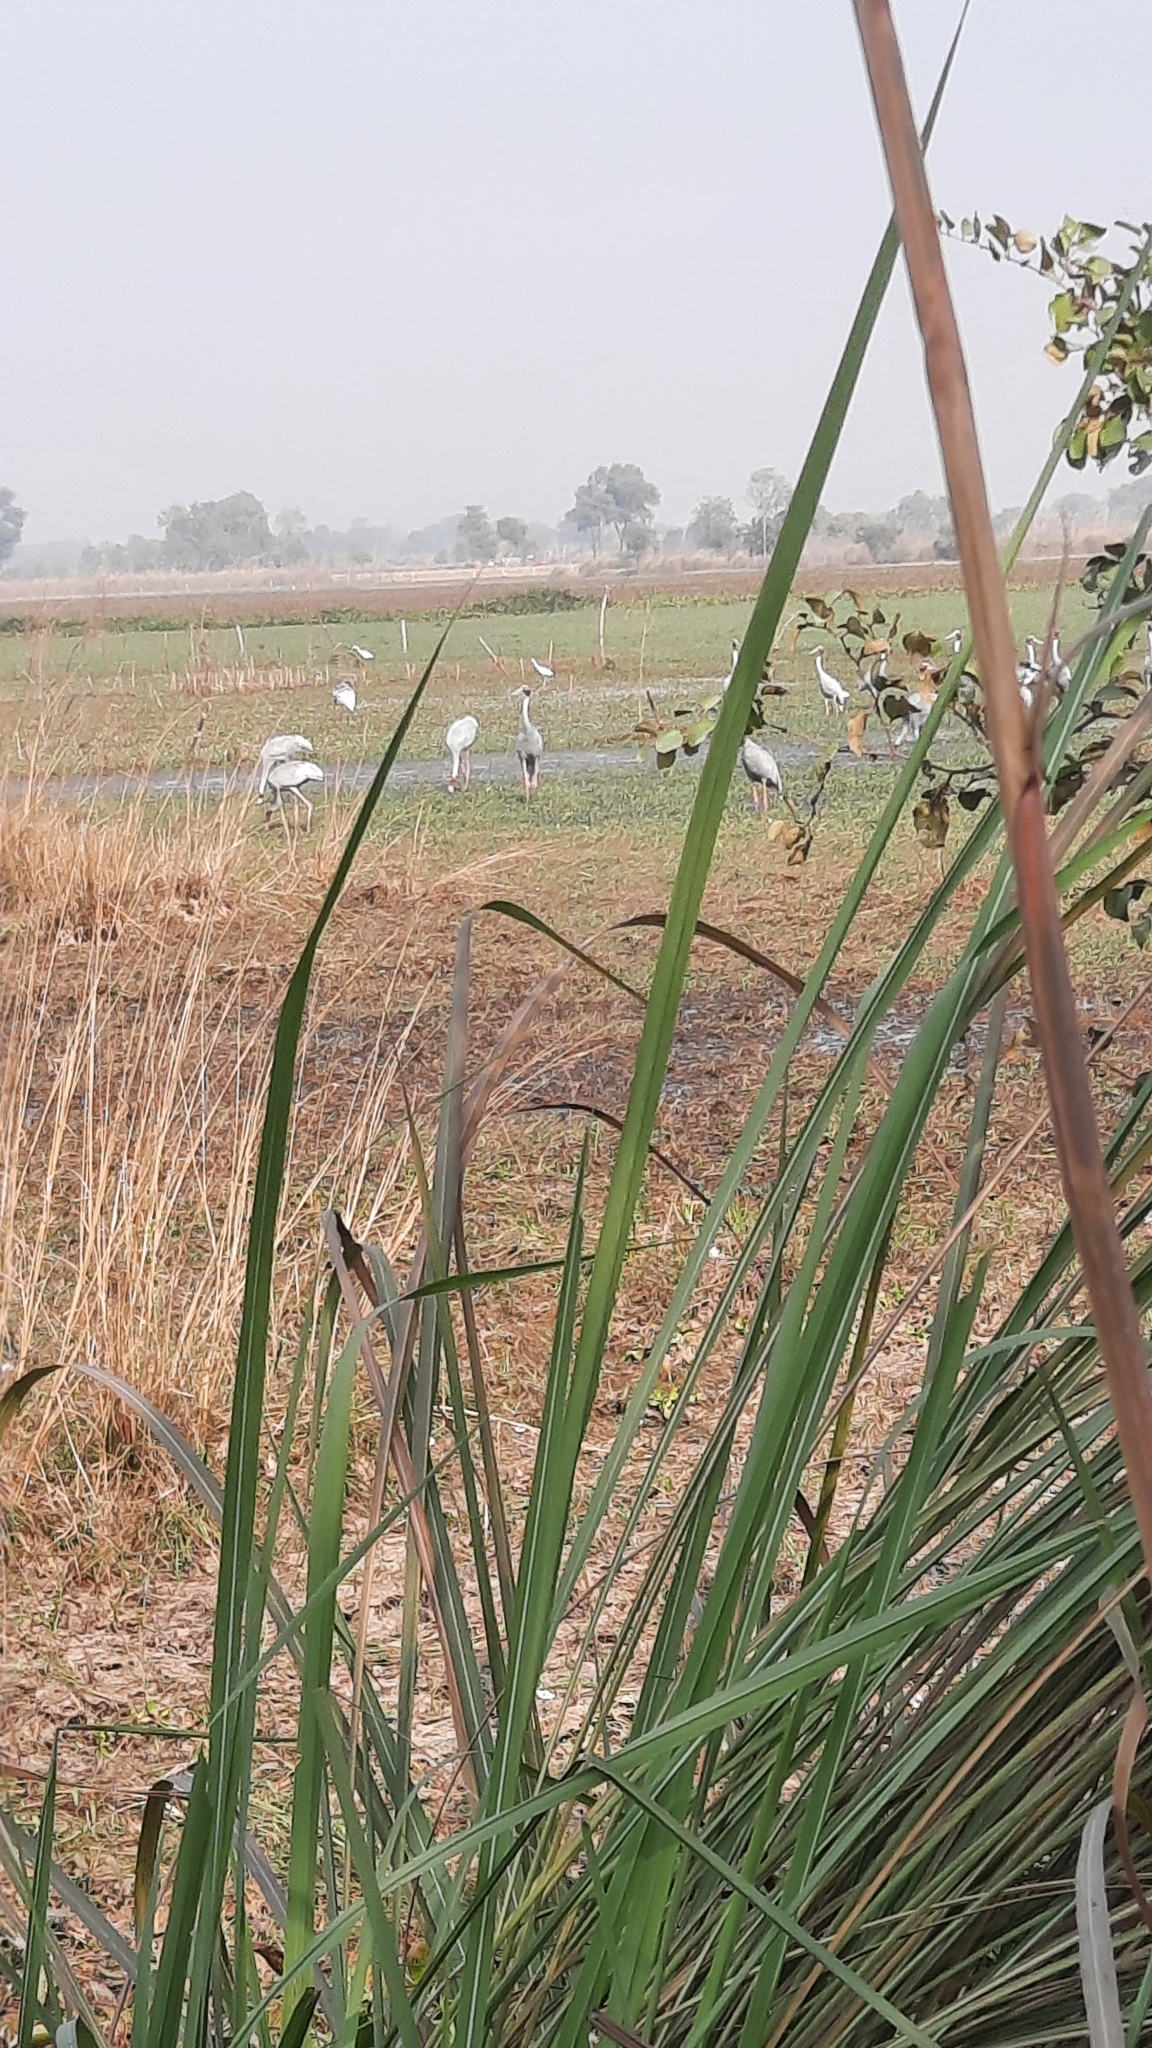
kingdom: Animalia
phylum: Chordata
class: Aves
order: Gruiformes
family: Gruidae
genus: Grus
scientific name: Grus antigone
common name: Sarus crane
